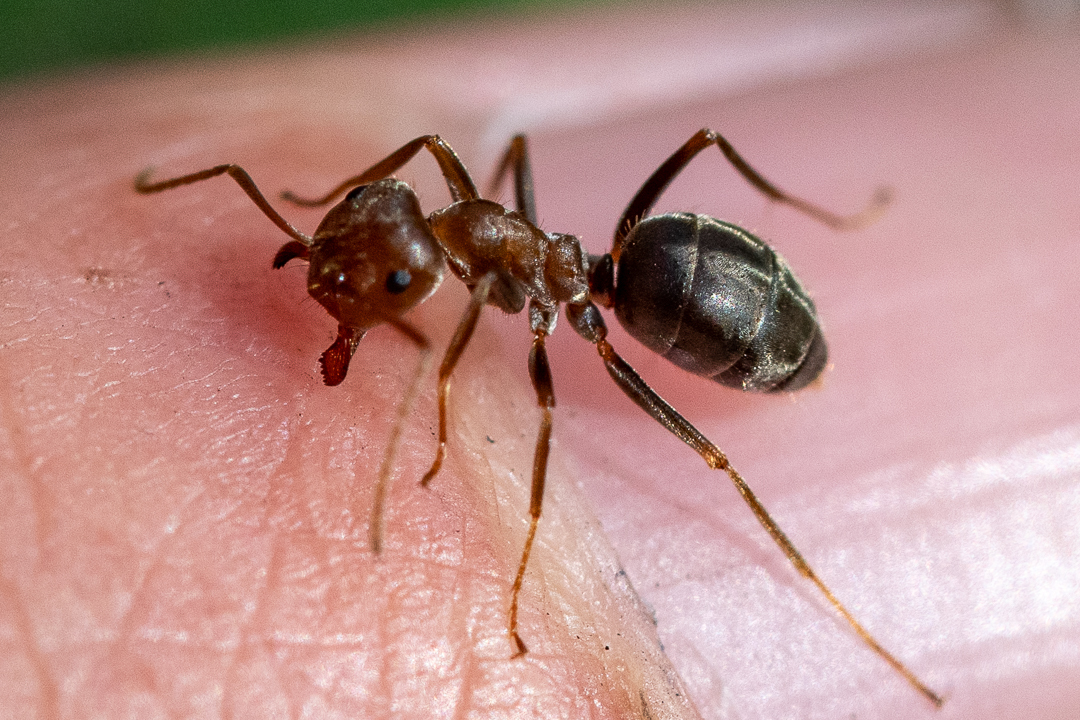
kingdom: Animalia
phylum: Arthropoda
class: Insecta
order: Hymenoptera
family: Formicidae
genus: Anoplolepis
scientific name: Anoplolepis steingroeveri
